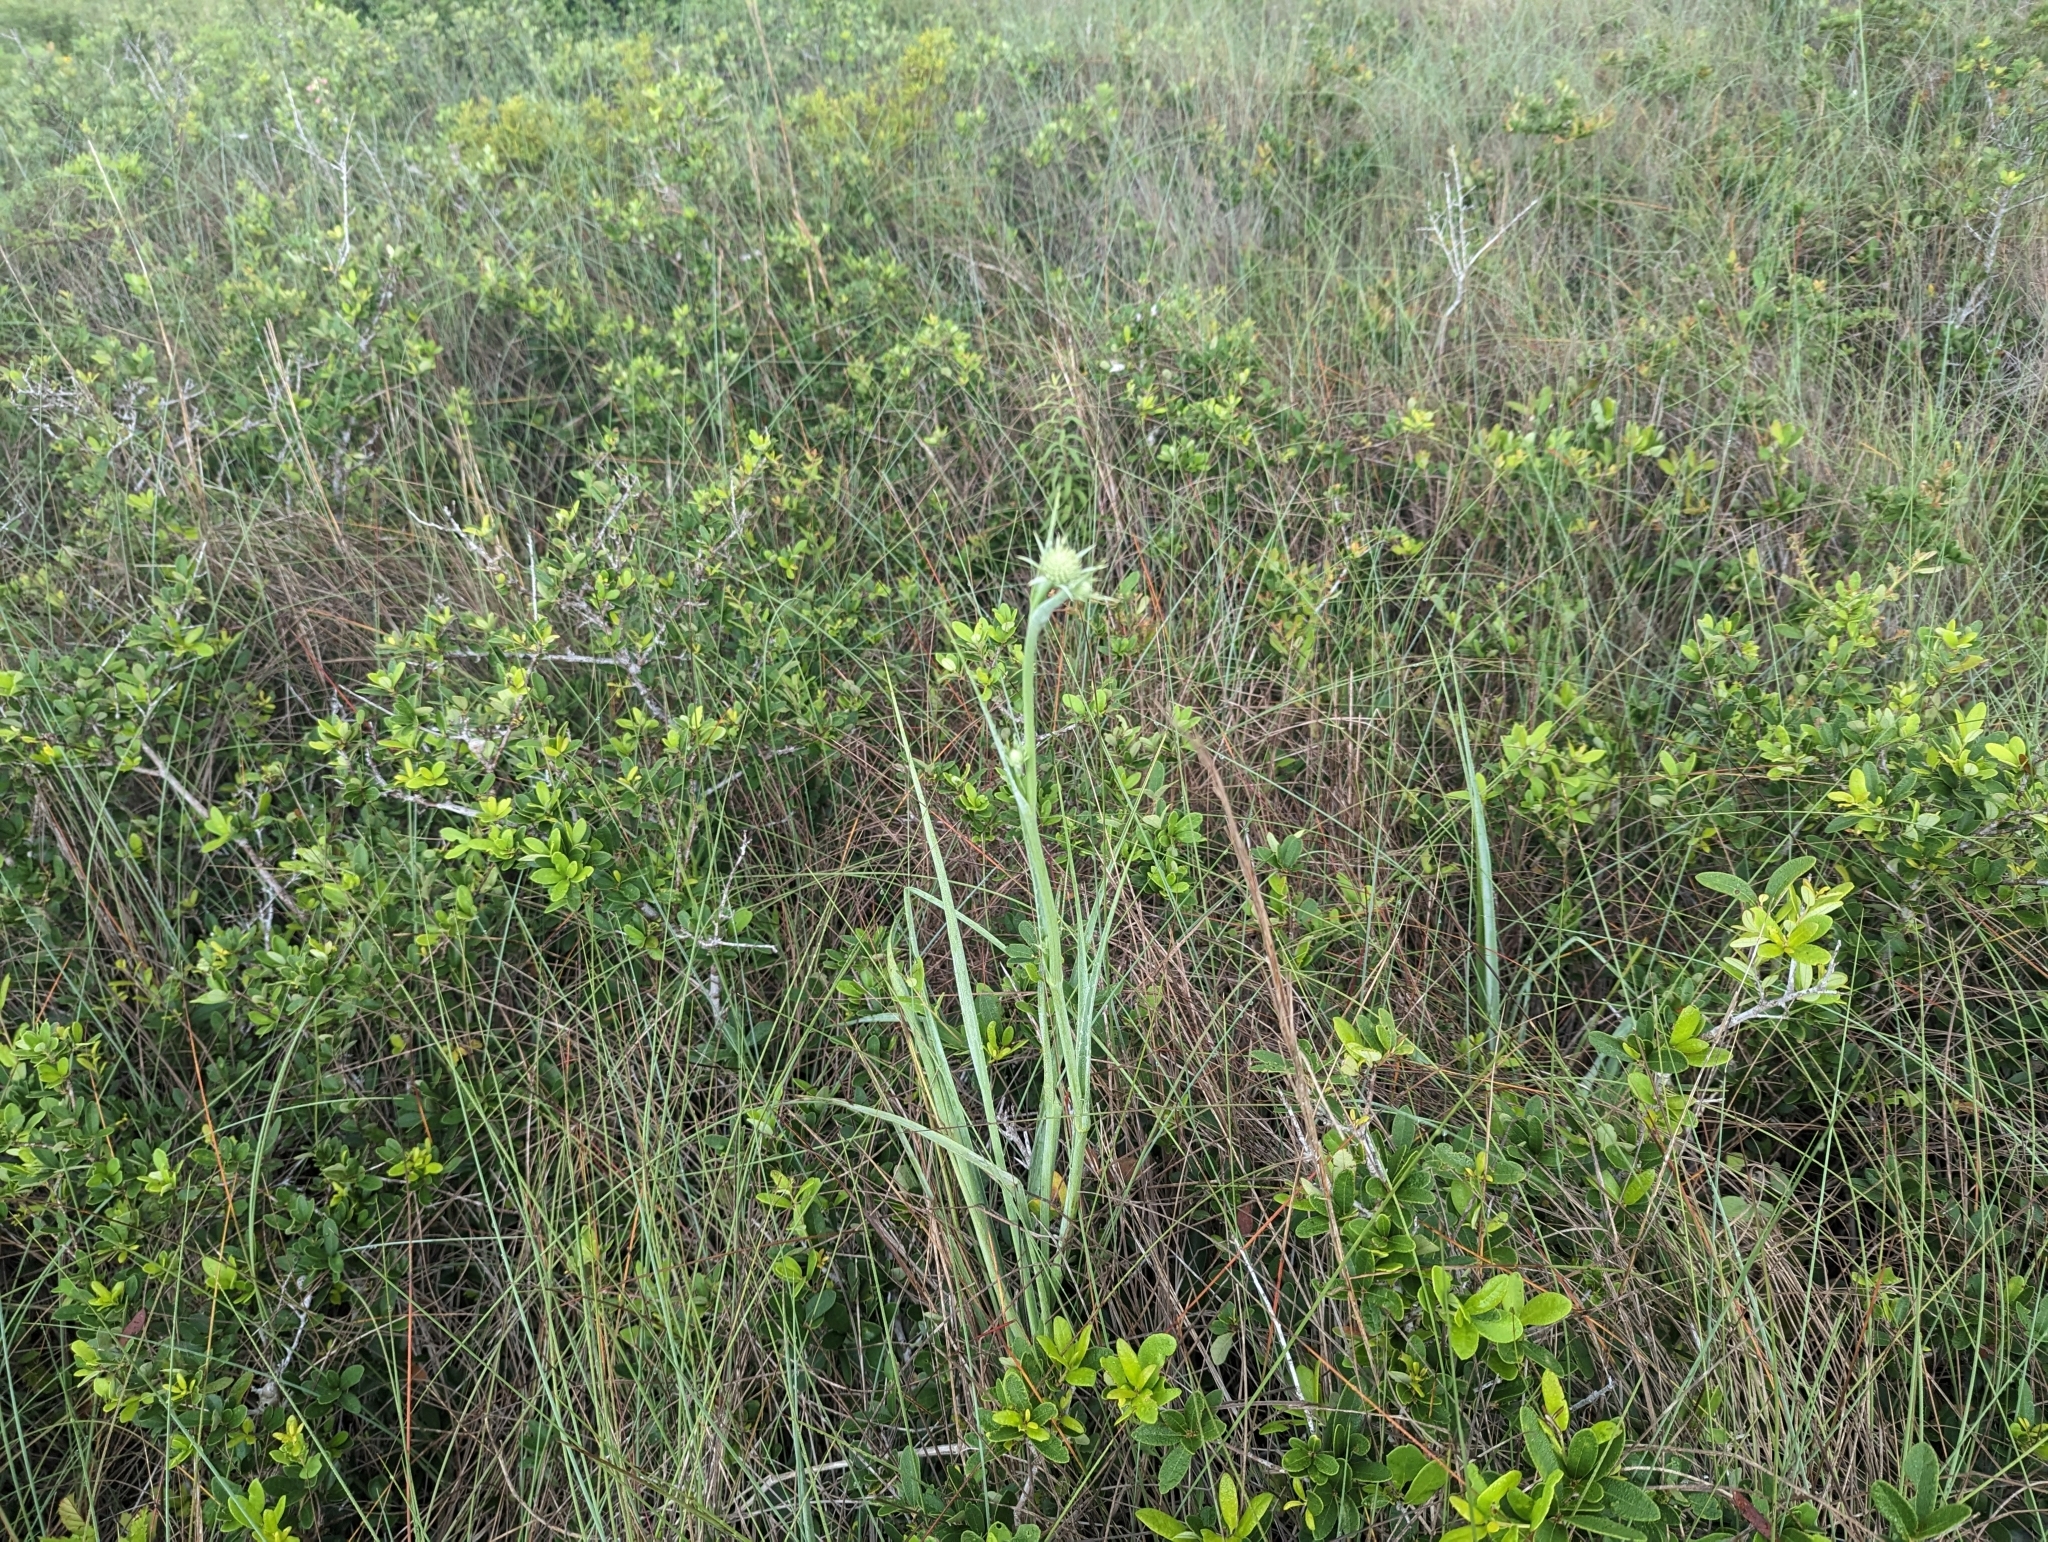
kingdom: Plantae
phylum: Tracheophyta
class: Magnoliopsida
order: Apiales
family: Apiaceae
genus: Eryngium
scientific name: Eryngium yuccifolium
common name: Button eryngo
